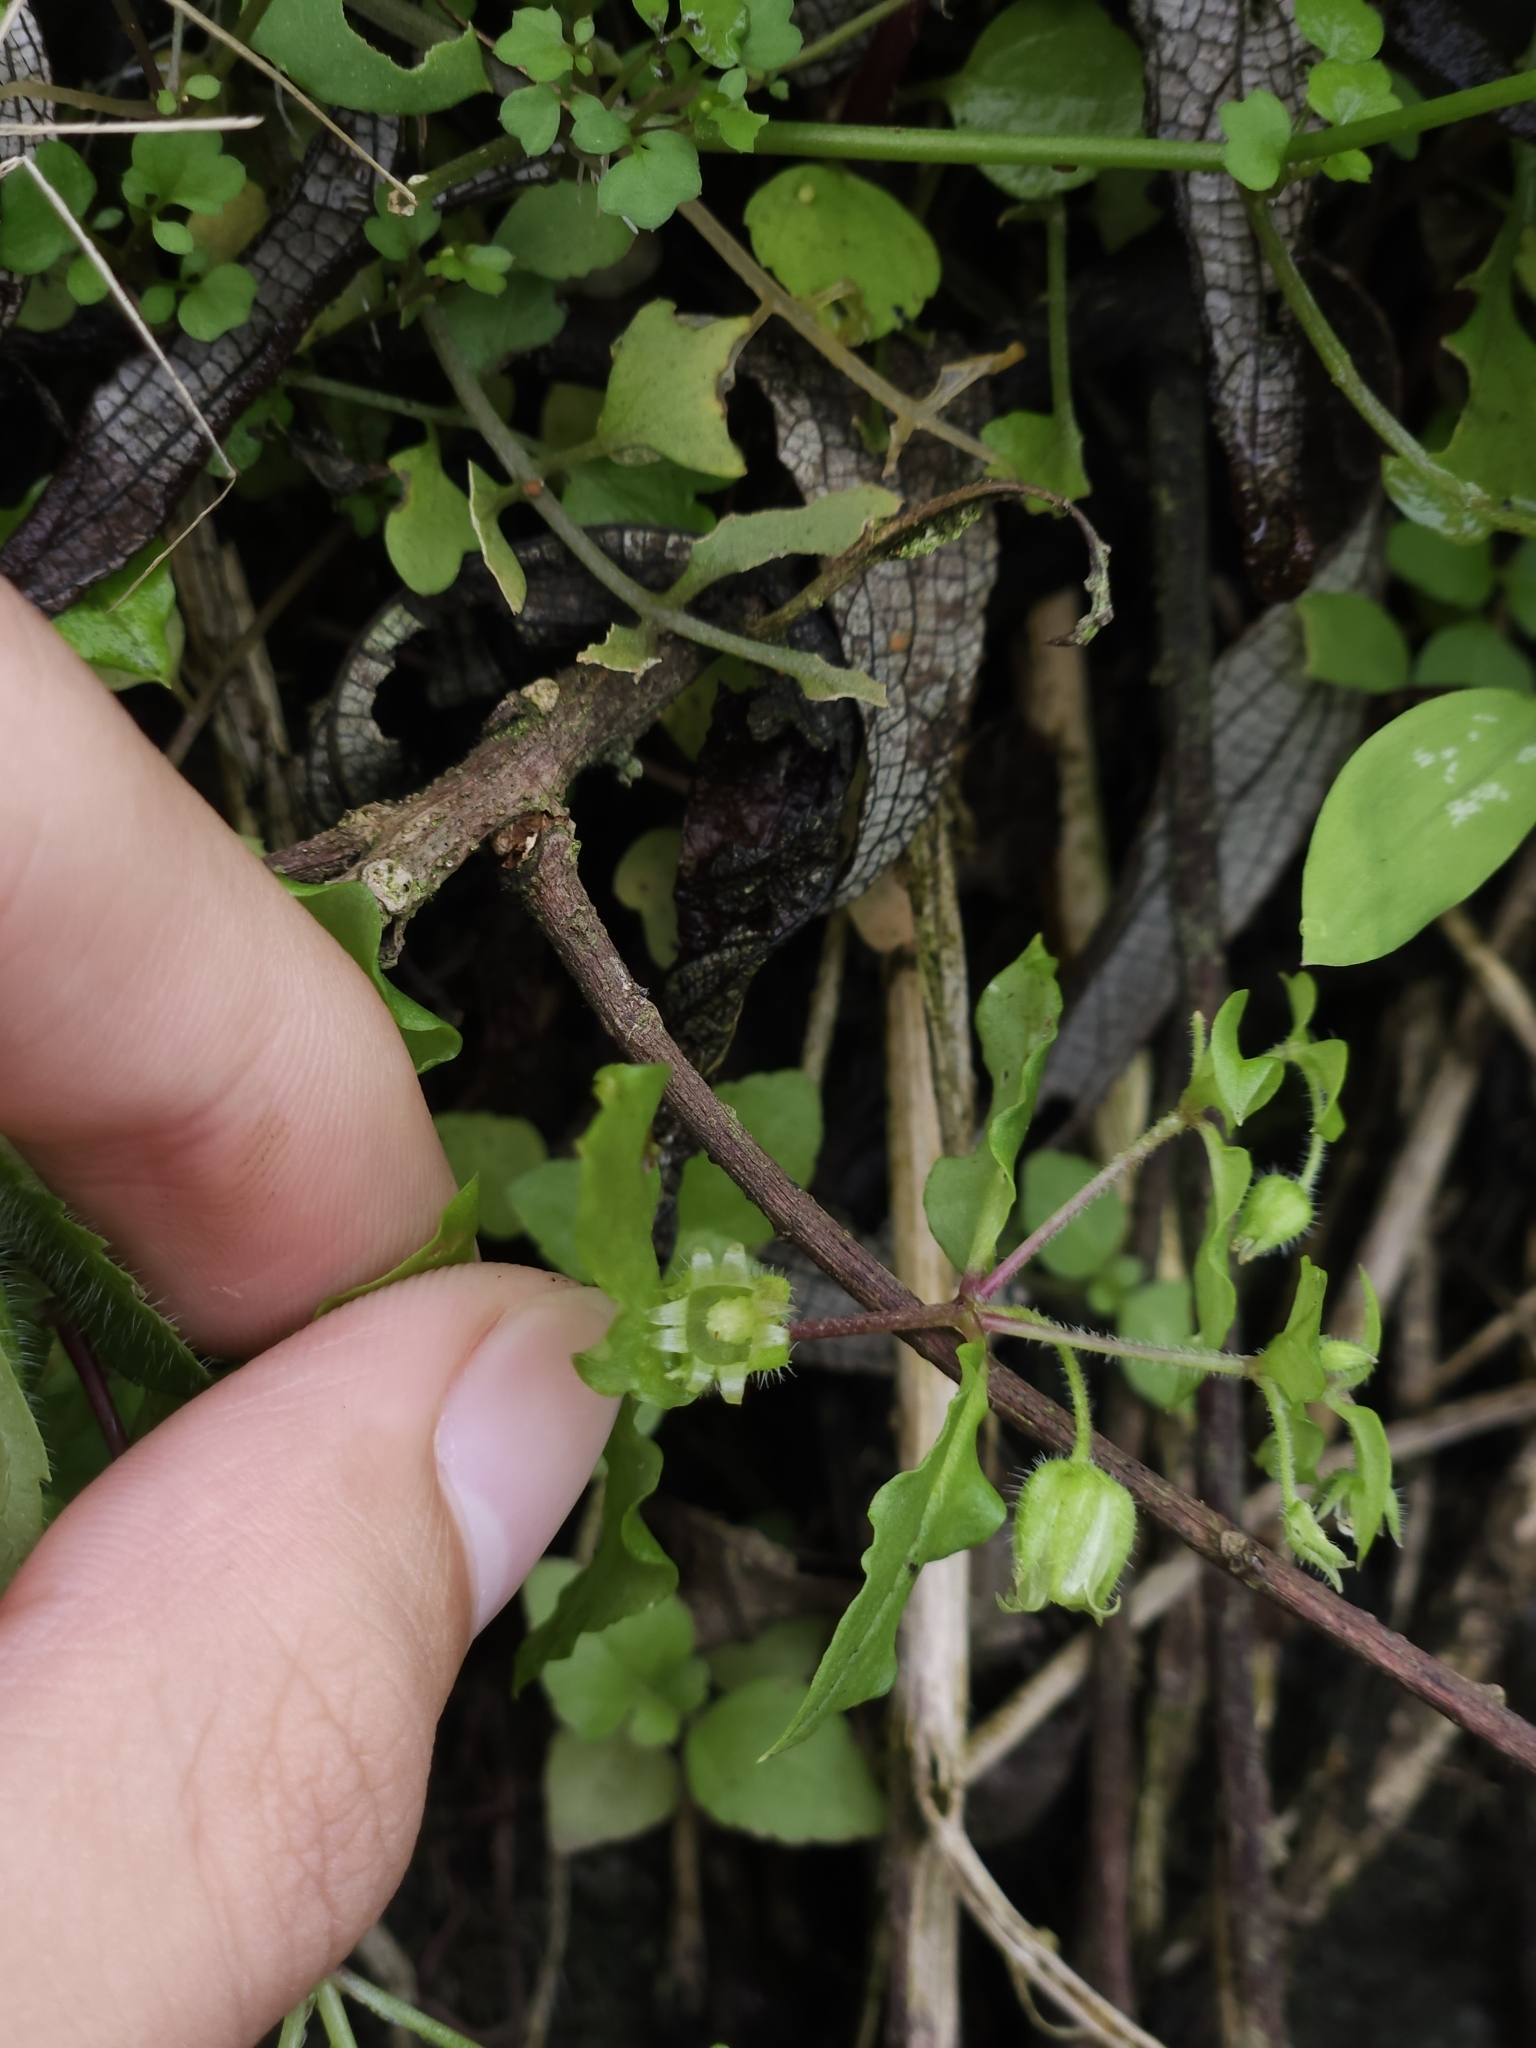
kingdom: Plantae
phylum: Tracheophyta
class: Magnoliopsida
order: Caryophyllales
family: Caryophyllaceae
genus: Stellaria
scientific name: Stellaria aquatica
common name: Water chickweed
